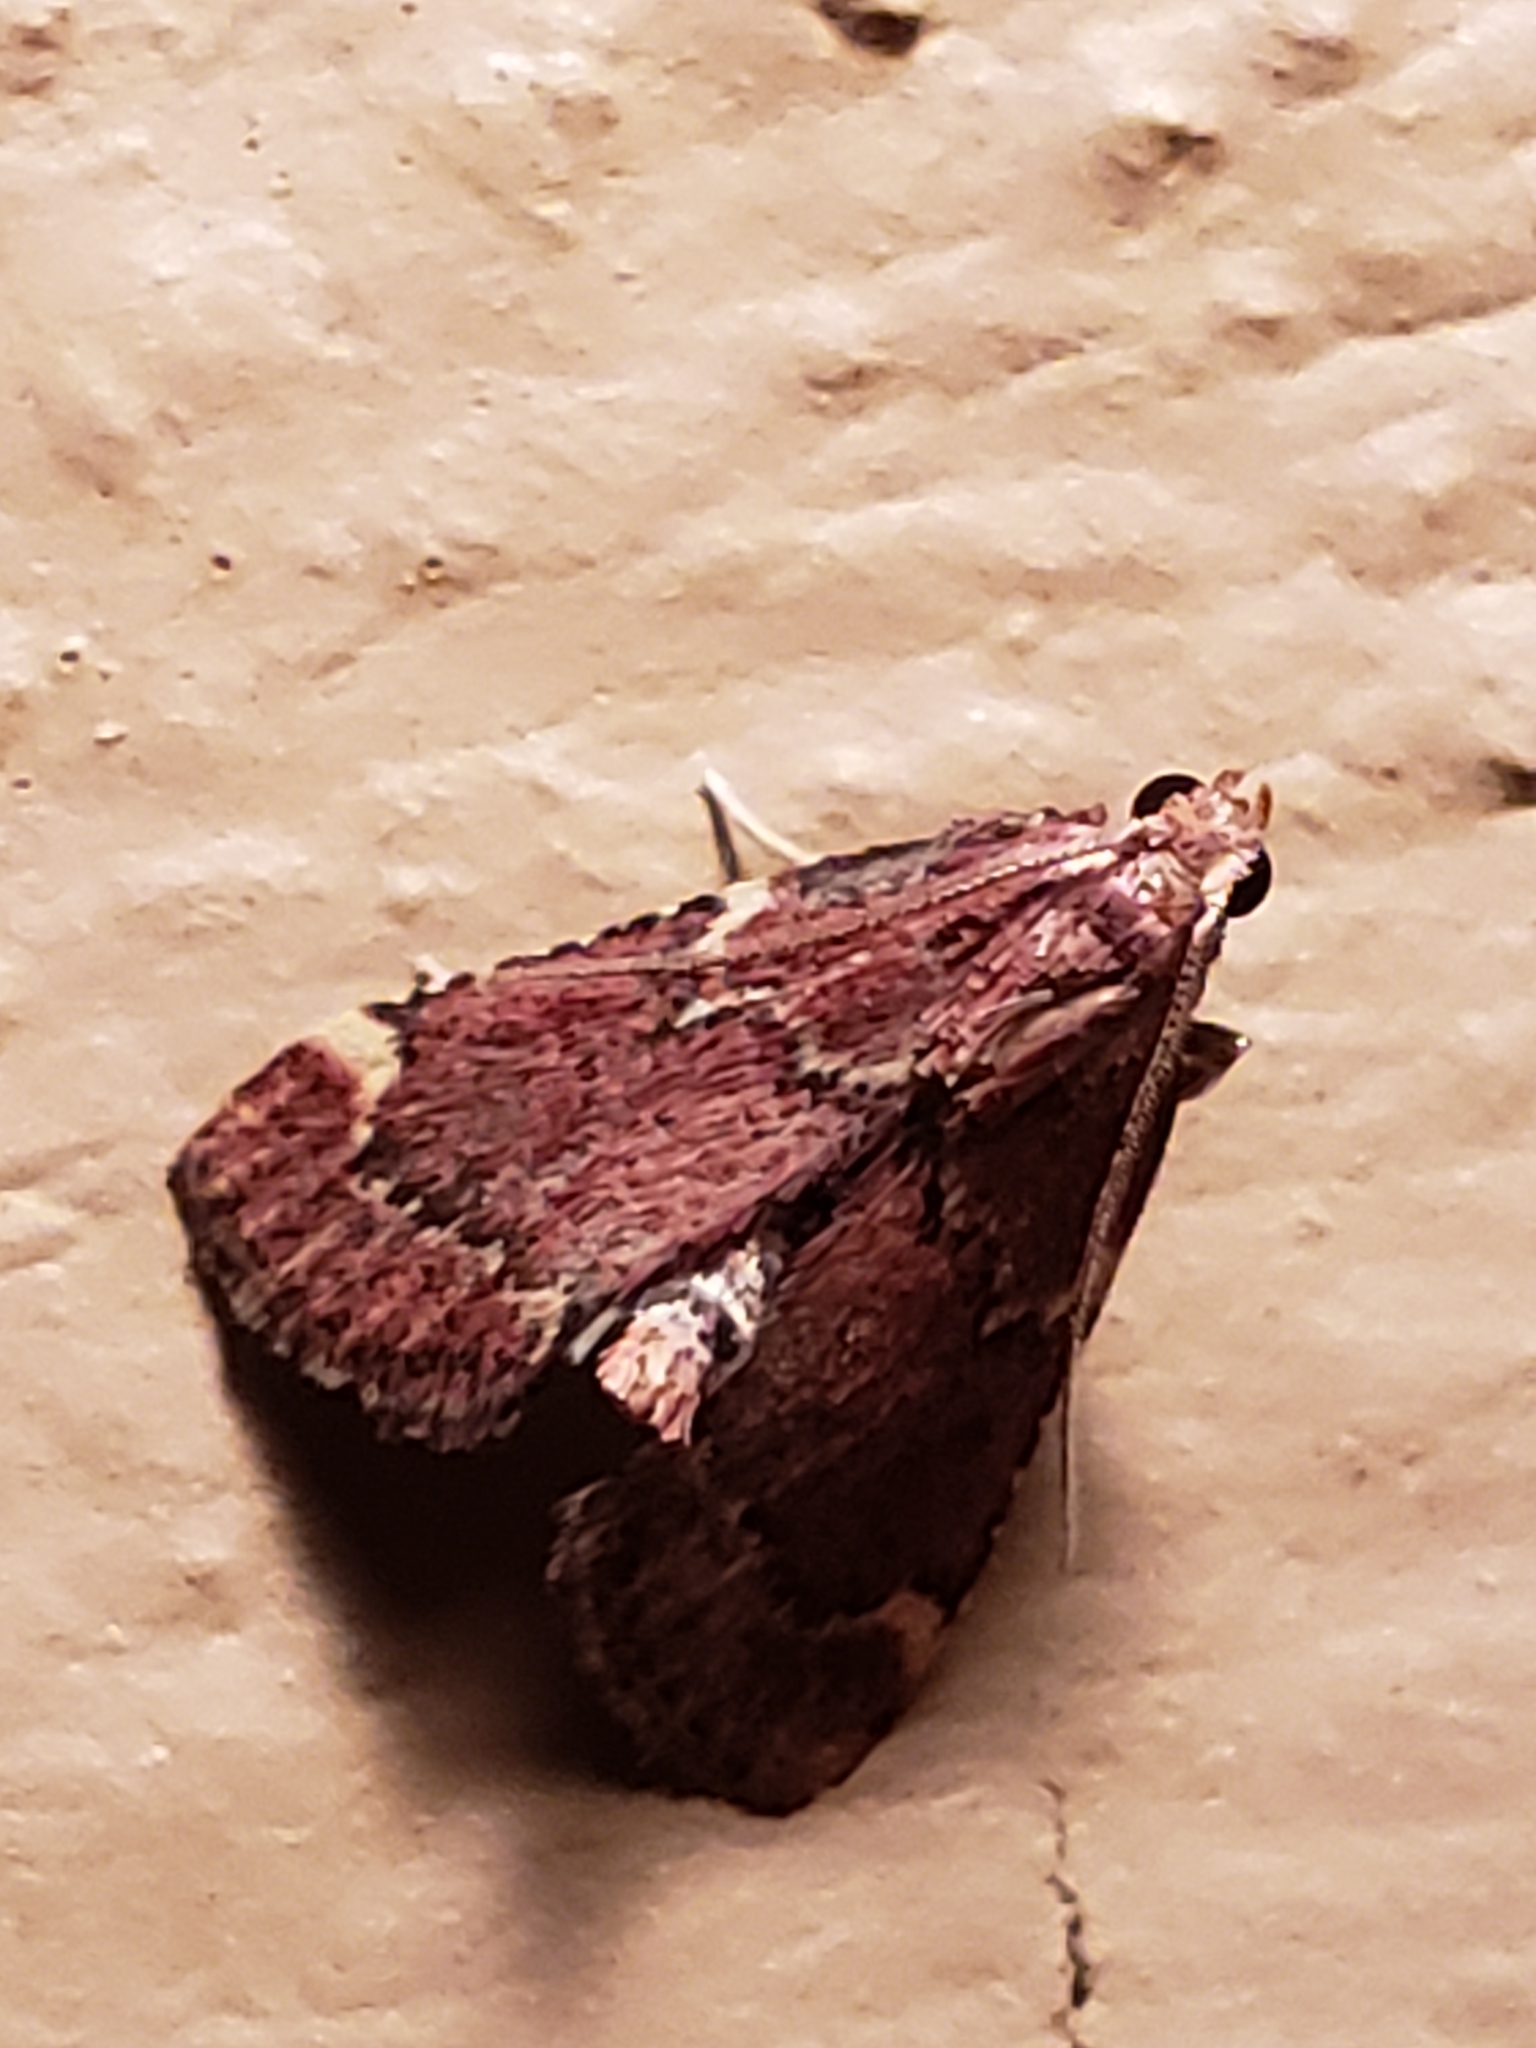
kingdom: Animalia
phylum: Arthropoda
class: Insecta
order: Lepidoptera
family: Pyralidae
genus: Hypsopygia
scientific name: Hypsopygia intermedialis
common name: Red-shawled moth
